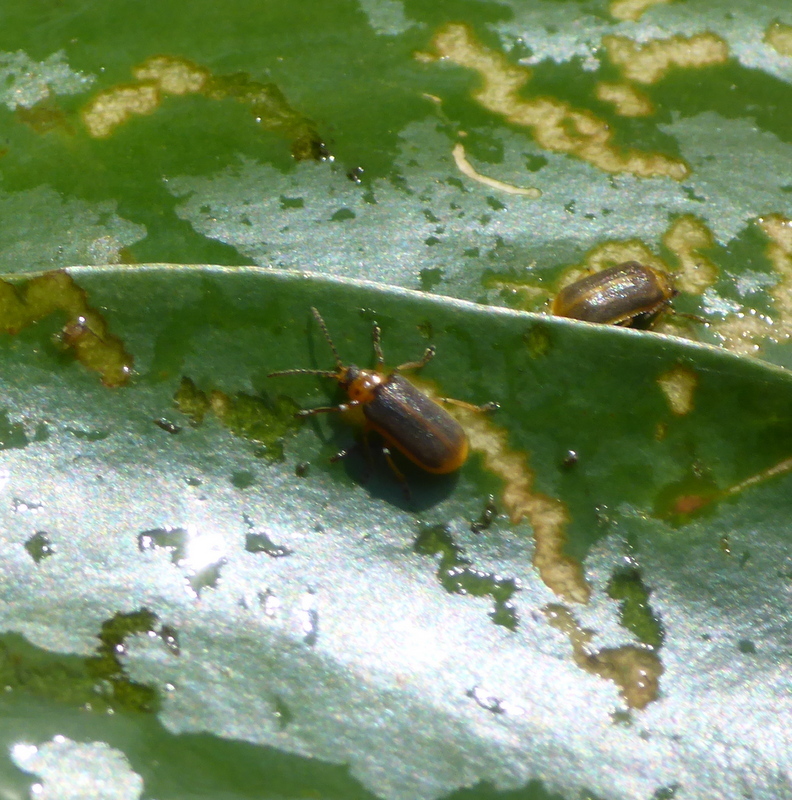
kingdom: Animalia
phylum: Arthropoda
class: Insecta
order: Coleoptera
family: Chrysomelidae
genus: Galerucella
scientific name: Galerucella nymphaeae
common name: Leaf beetle
